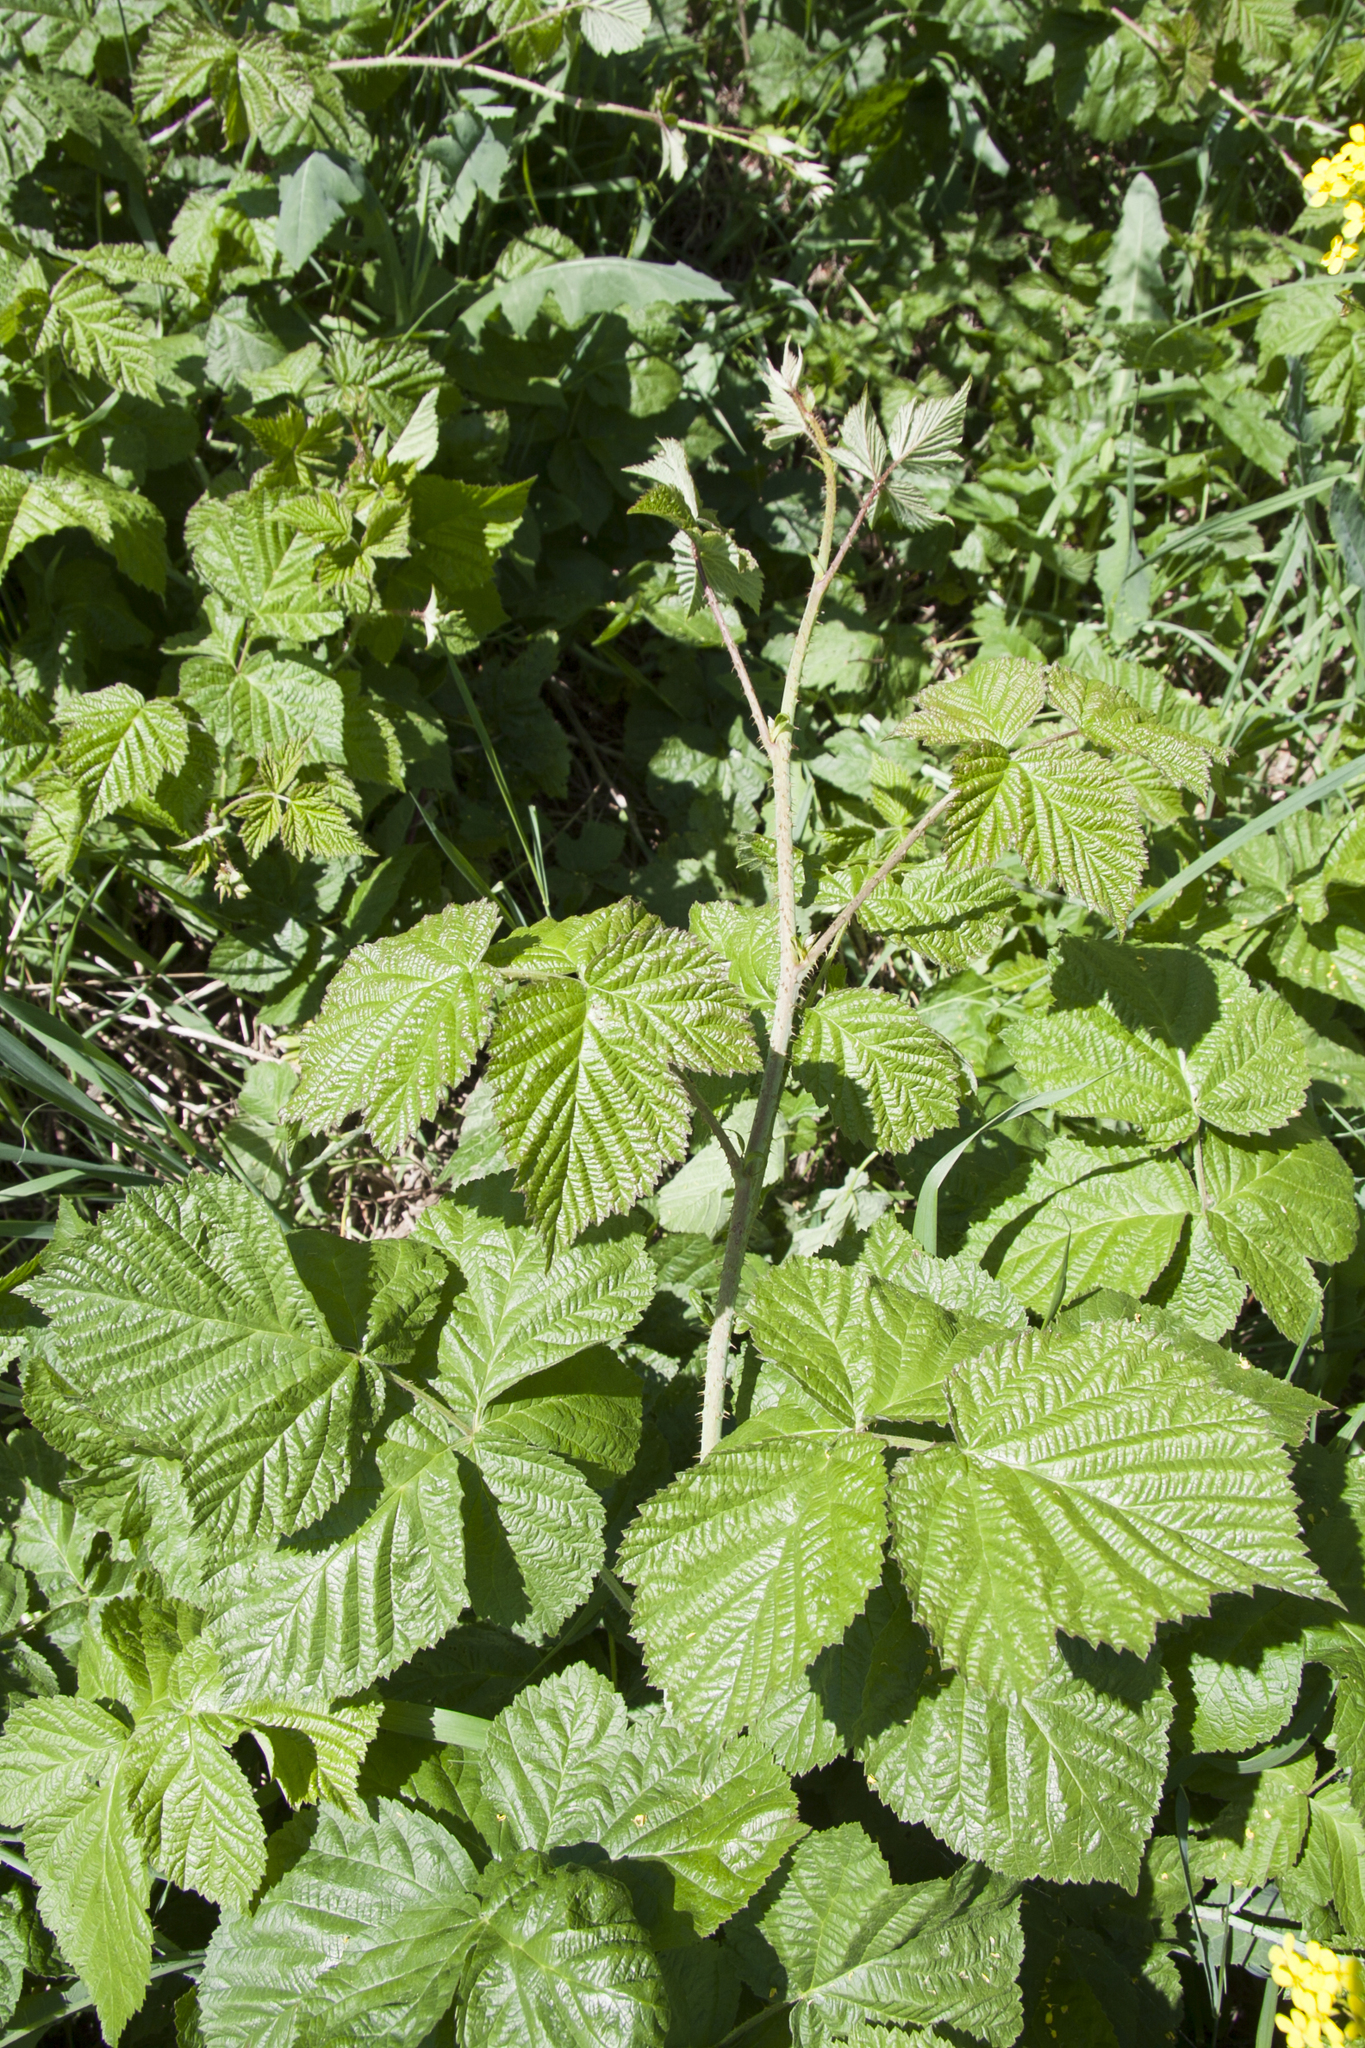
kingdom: Plantae
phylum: Tracheophyta
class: Magnoliopsida
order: Rosales
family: Rosaceae
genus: Rubus
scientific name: Rubus caesius
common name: Dewberry
